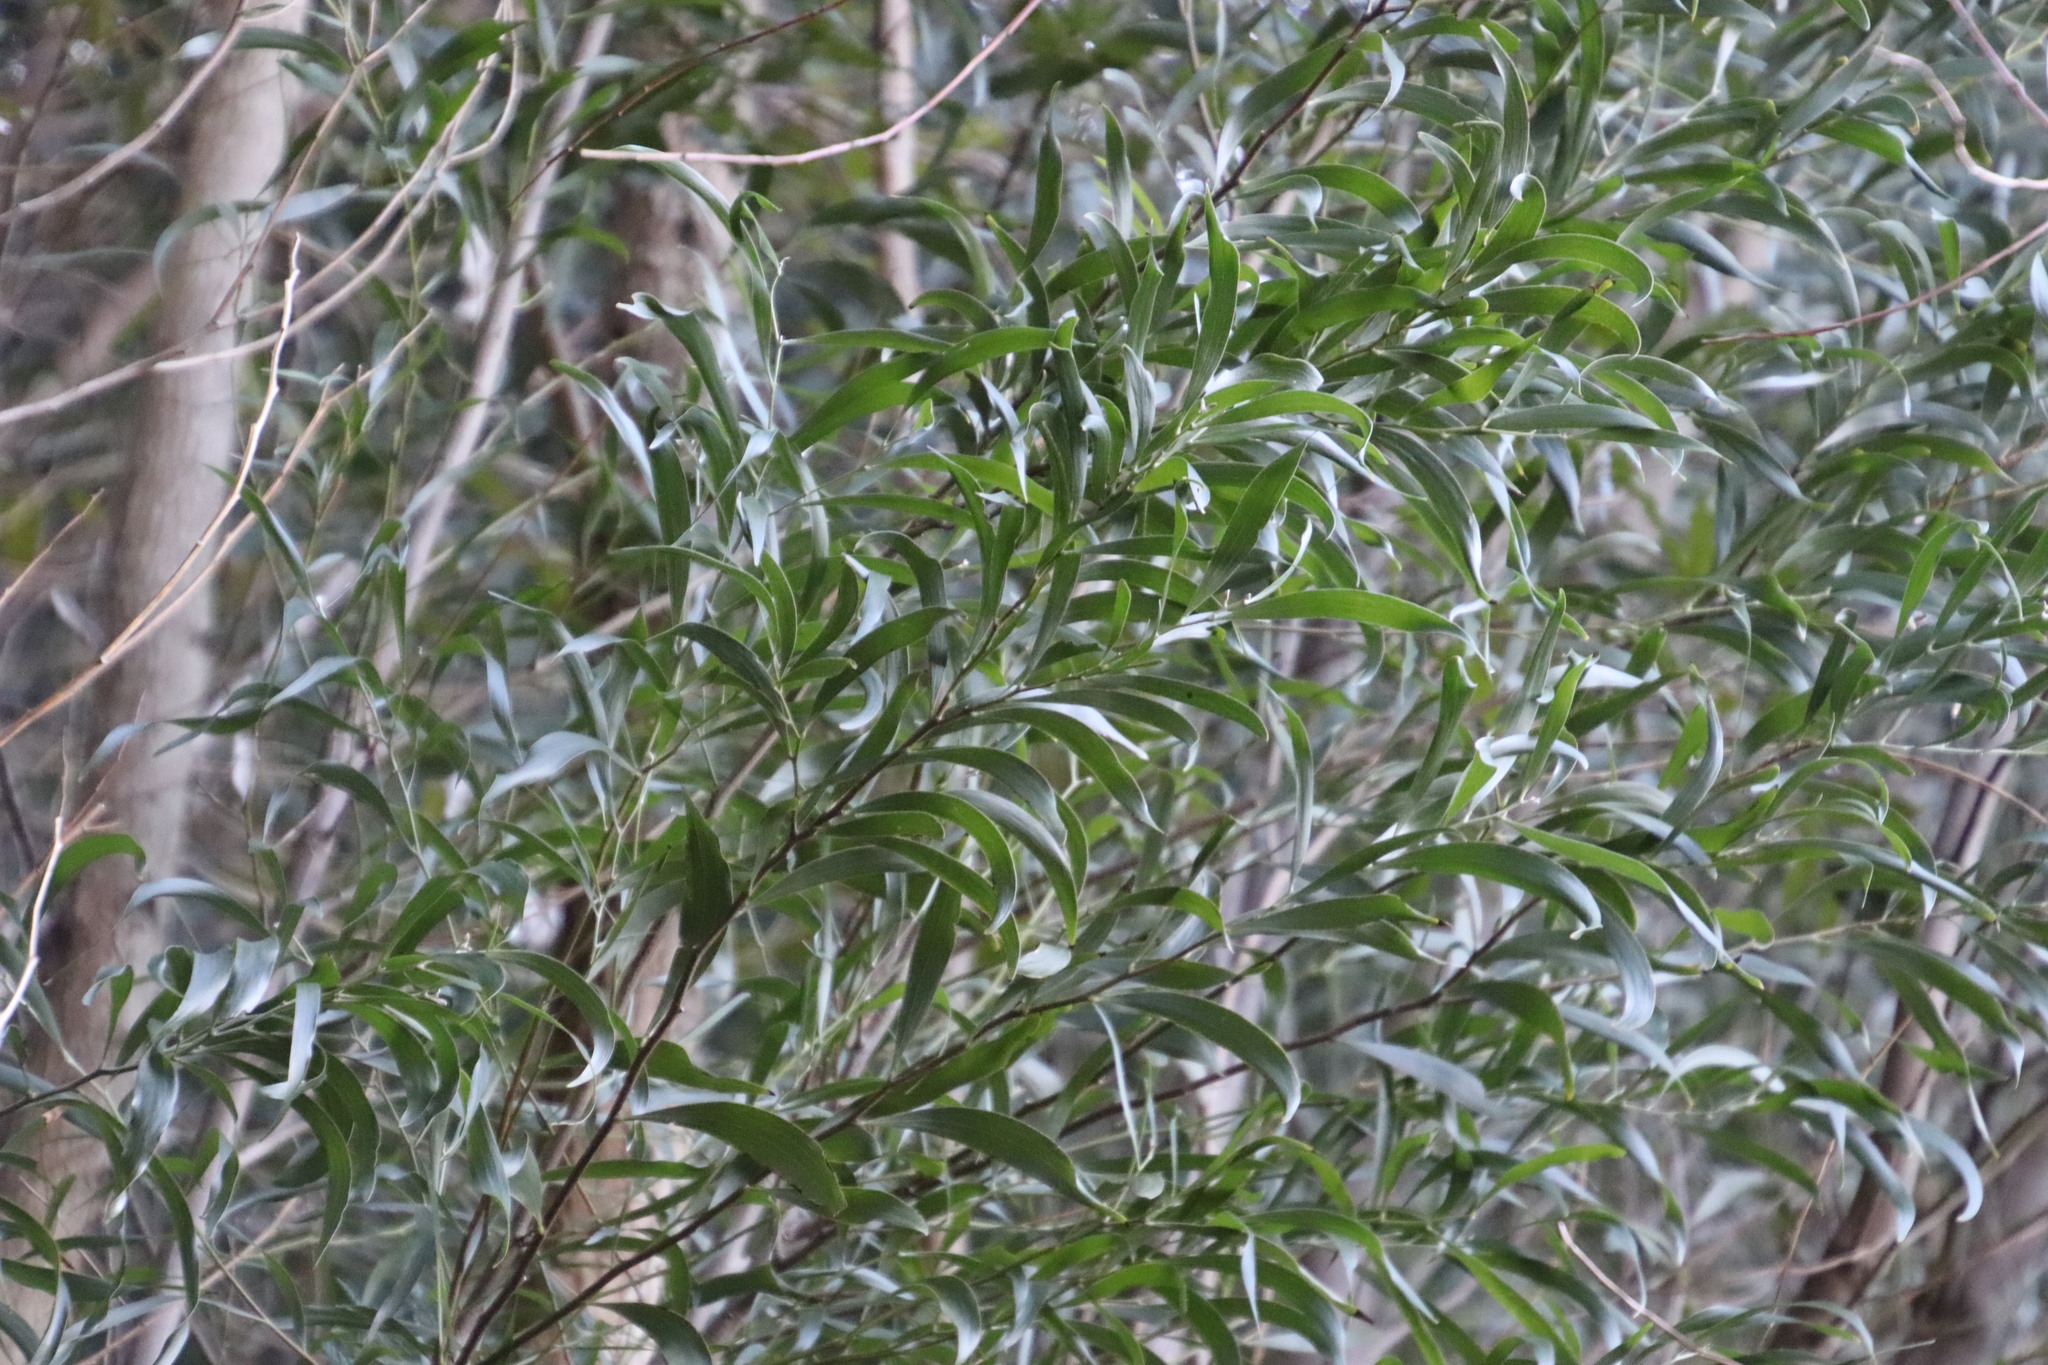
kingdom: Plantae
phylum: Tracheophyta
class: Magnoliopsida
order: Fabales
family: Fabaceae
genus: Acacia
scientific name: Acacia melanoxylon
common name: Blackwood
